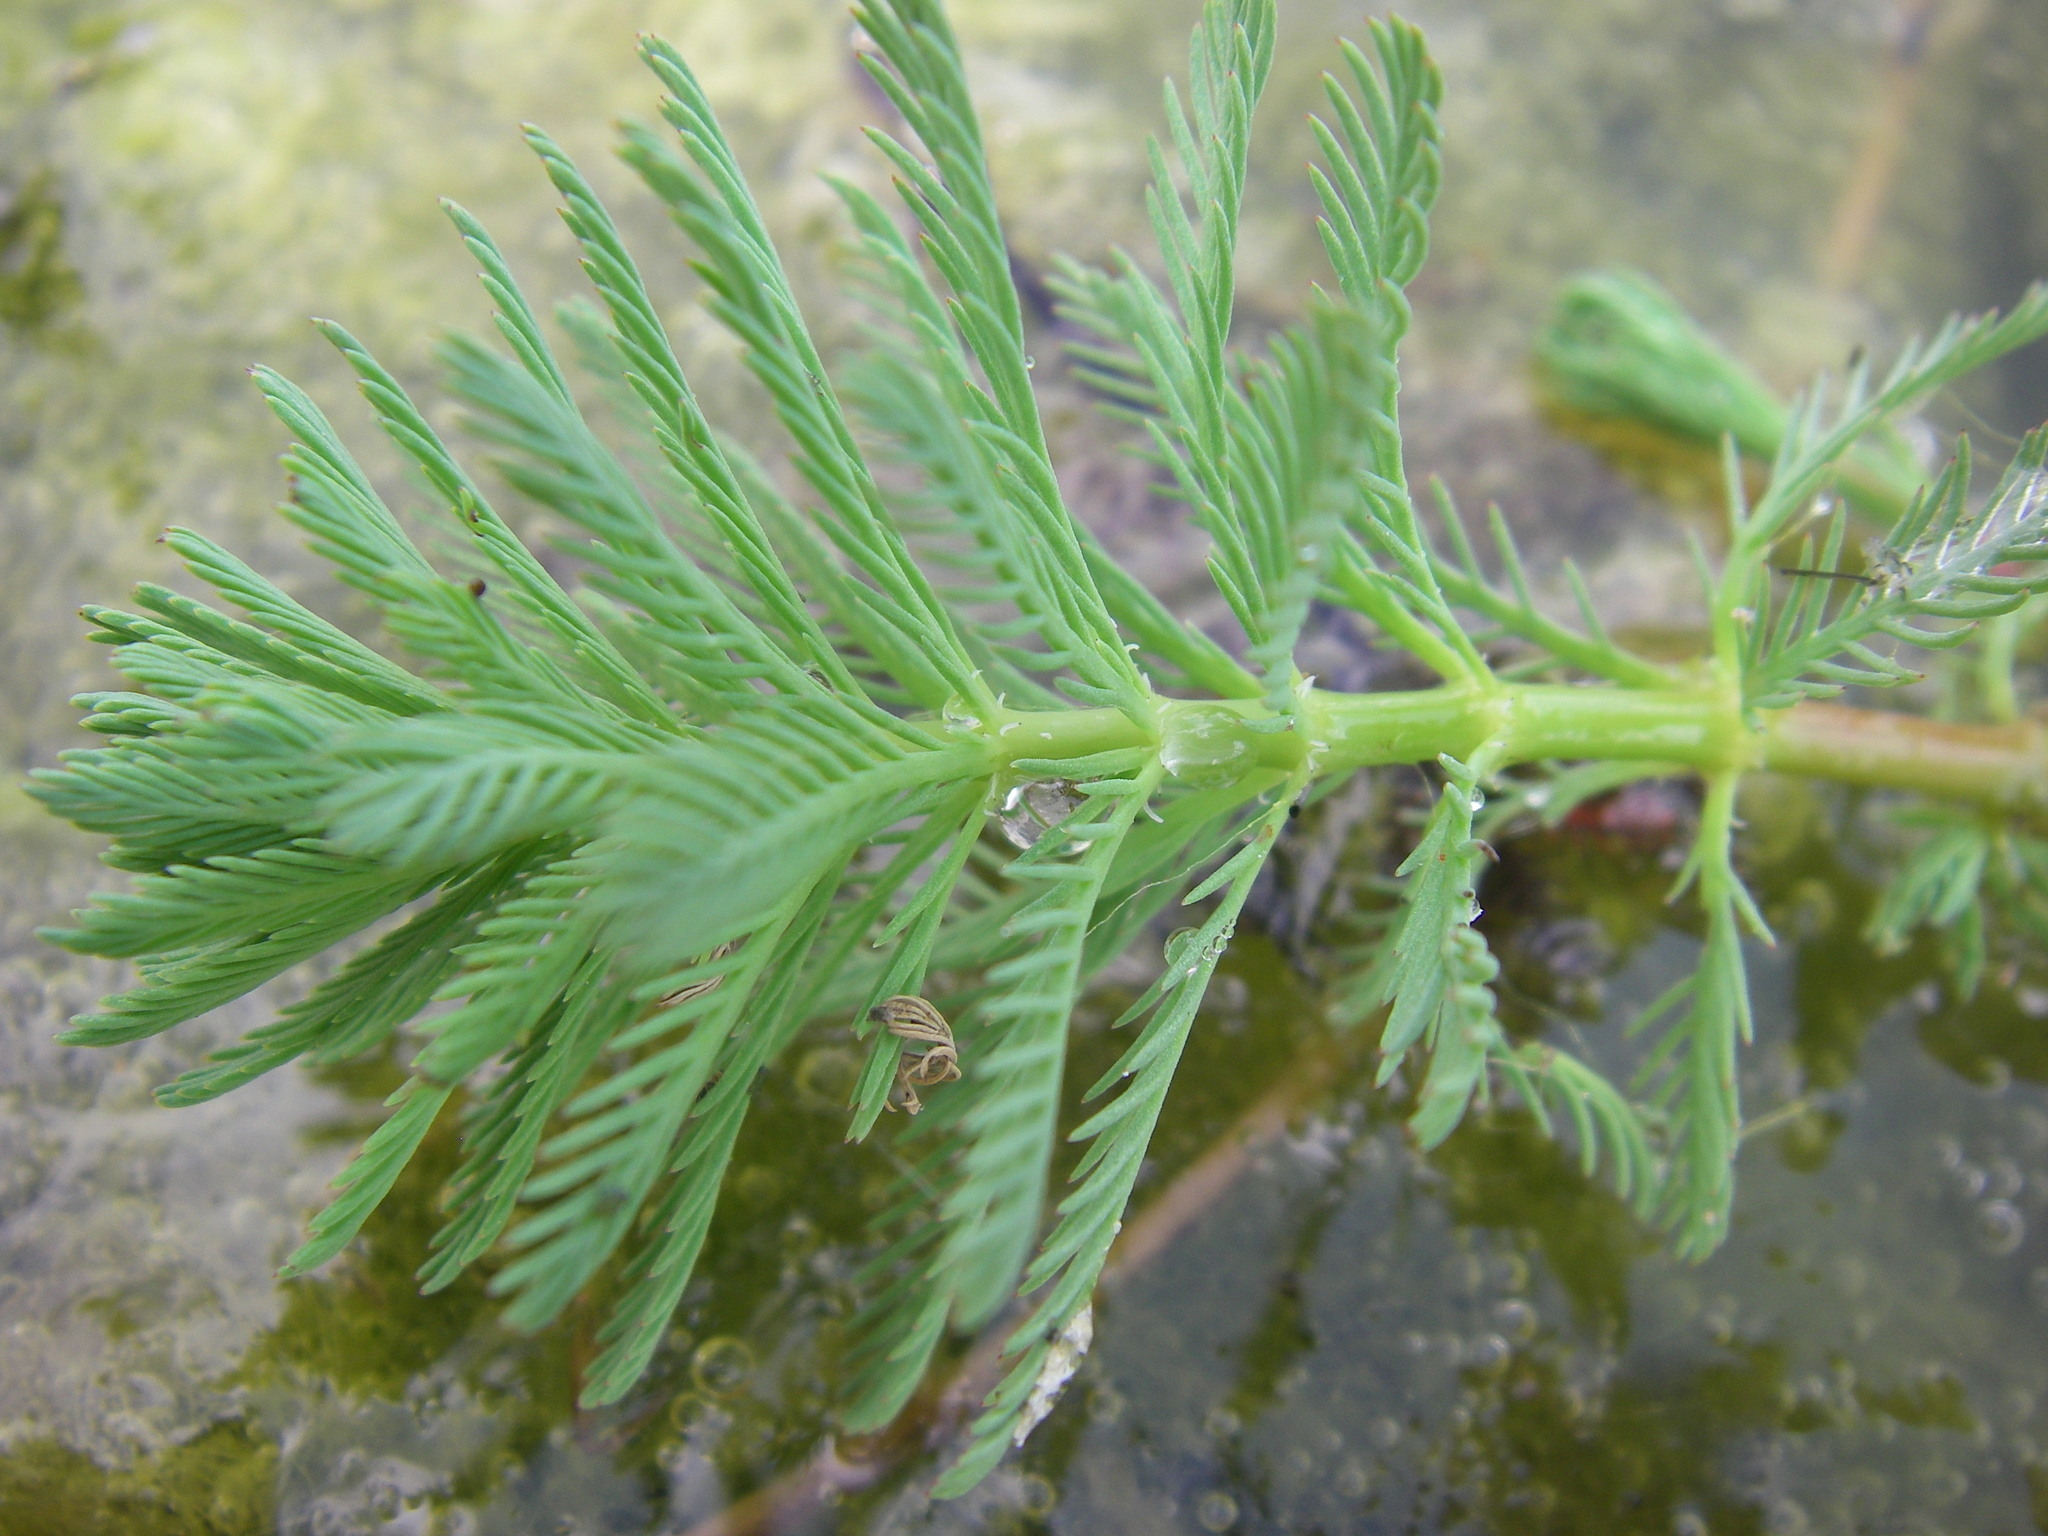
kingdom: Plantae
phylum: Tracheophyta
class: Magnoliopsida
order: Saxifragales
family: Haloragaceae
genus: Myriophyllum
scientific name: Myriophyllum aquaticum
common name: Parrot's feather
